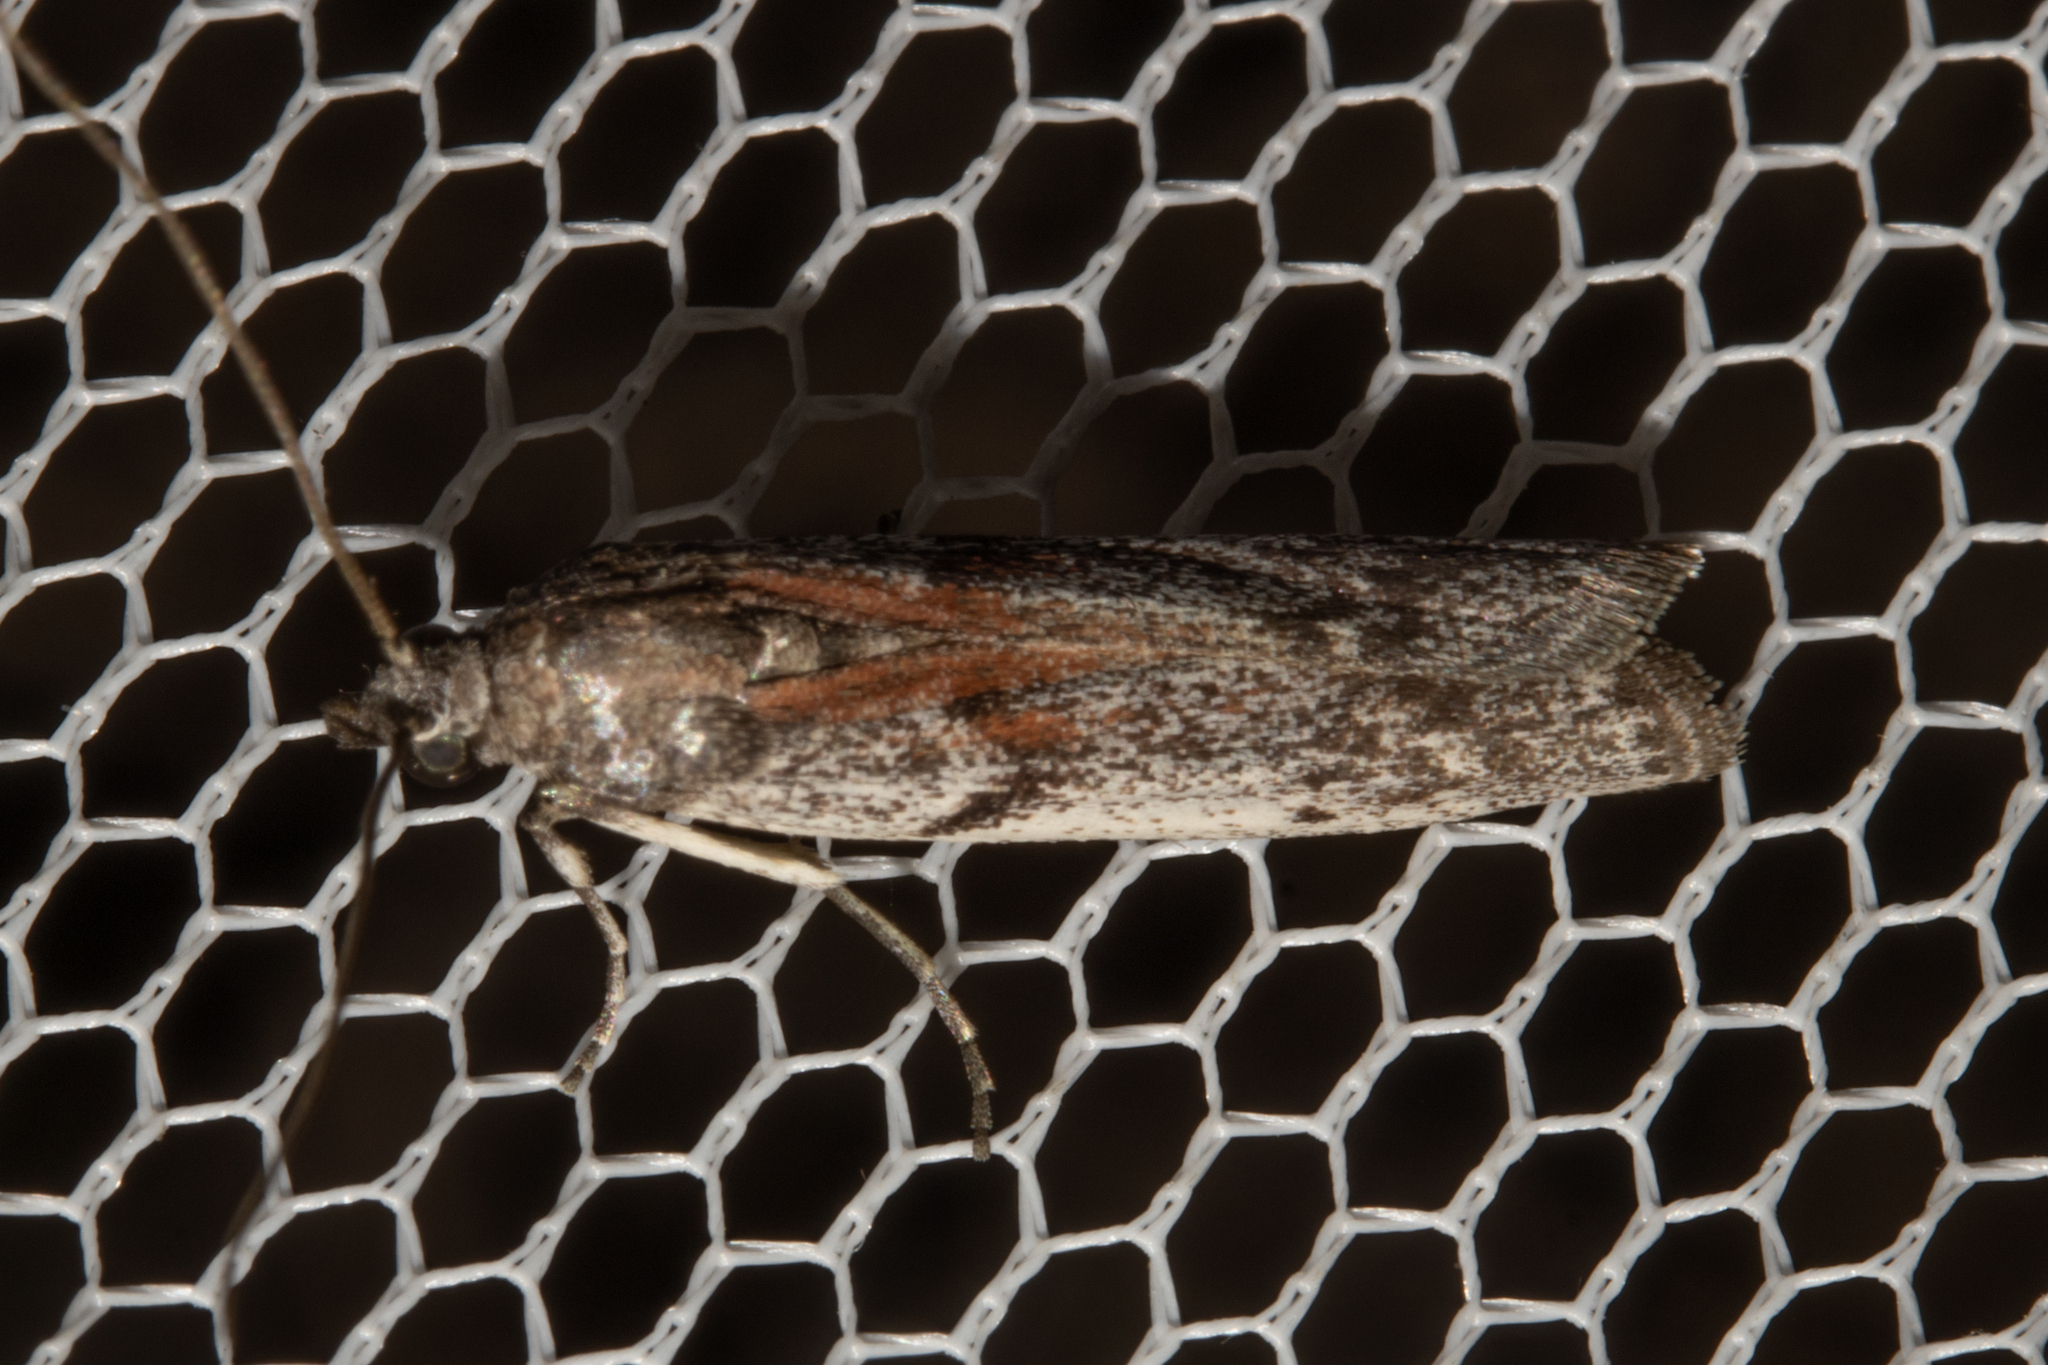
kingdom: Animalia
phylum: Arthropoda
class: Insecta
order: Lepidoptera
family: Pyralidae
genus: Patagoniodes
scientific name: Patagoniodes farinaria
